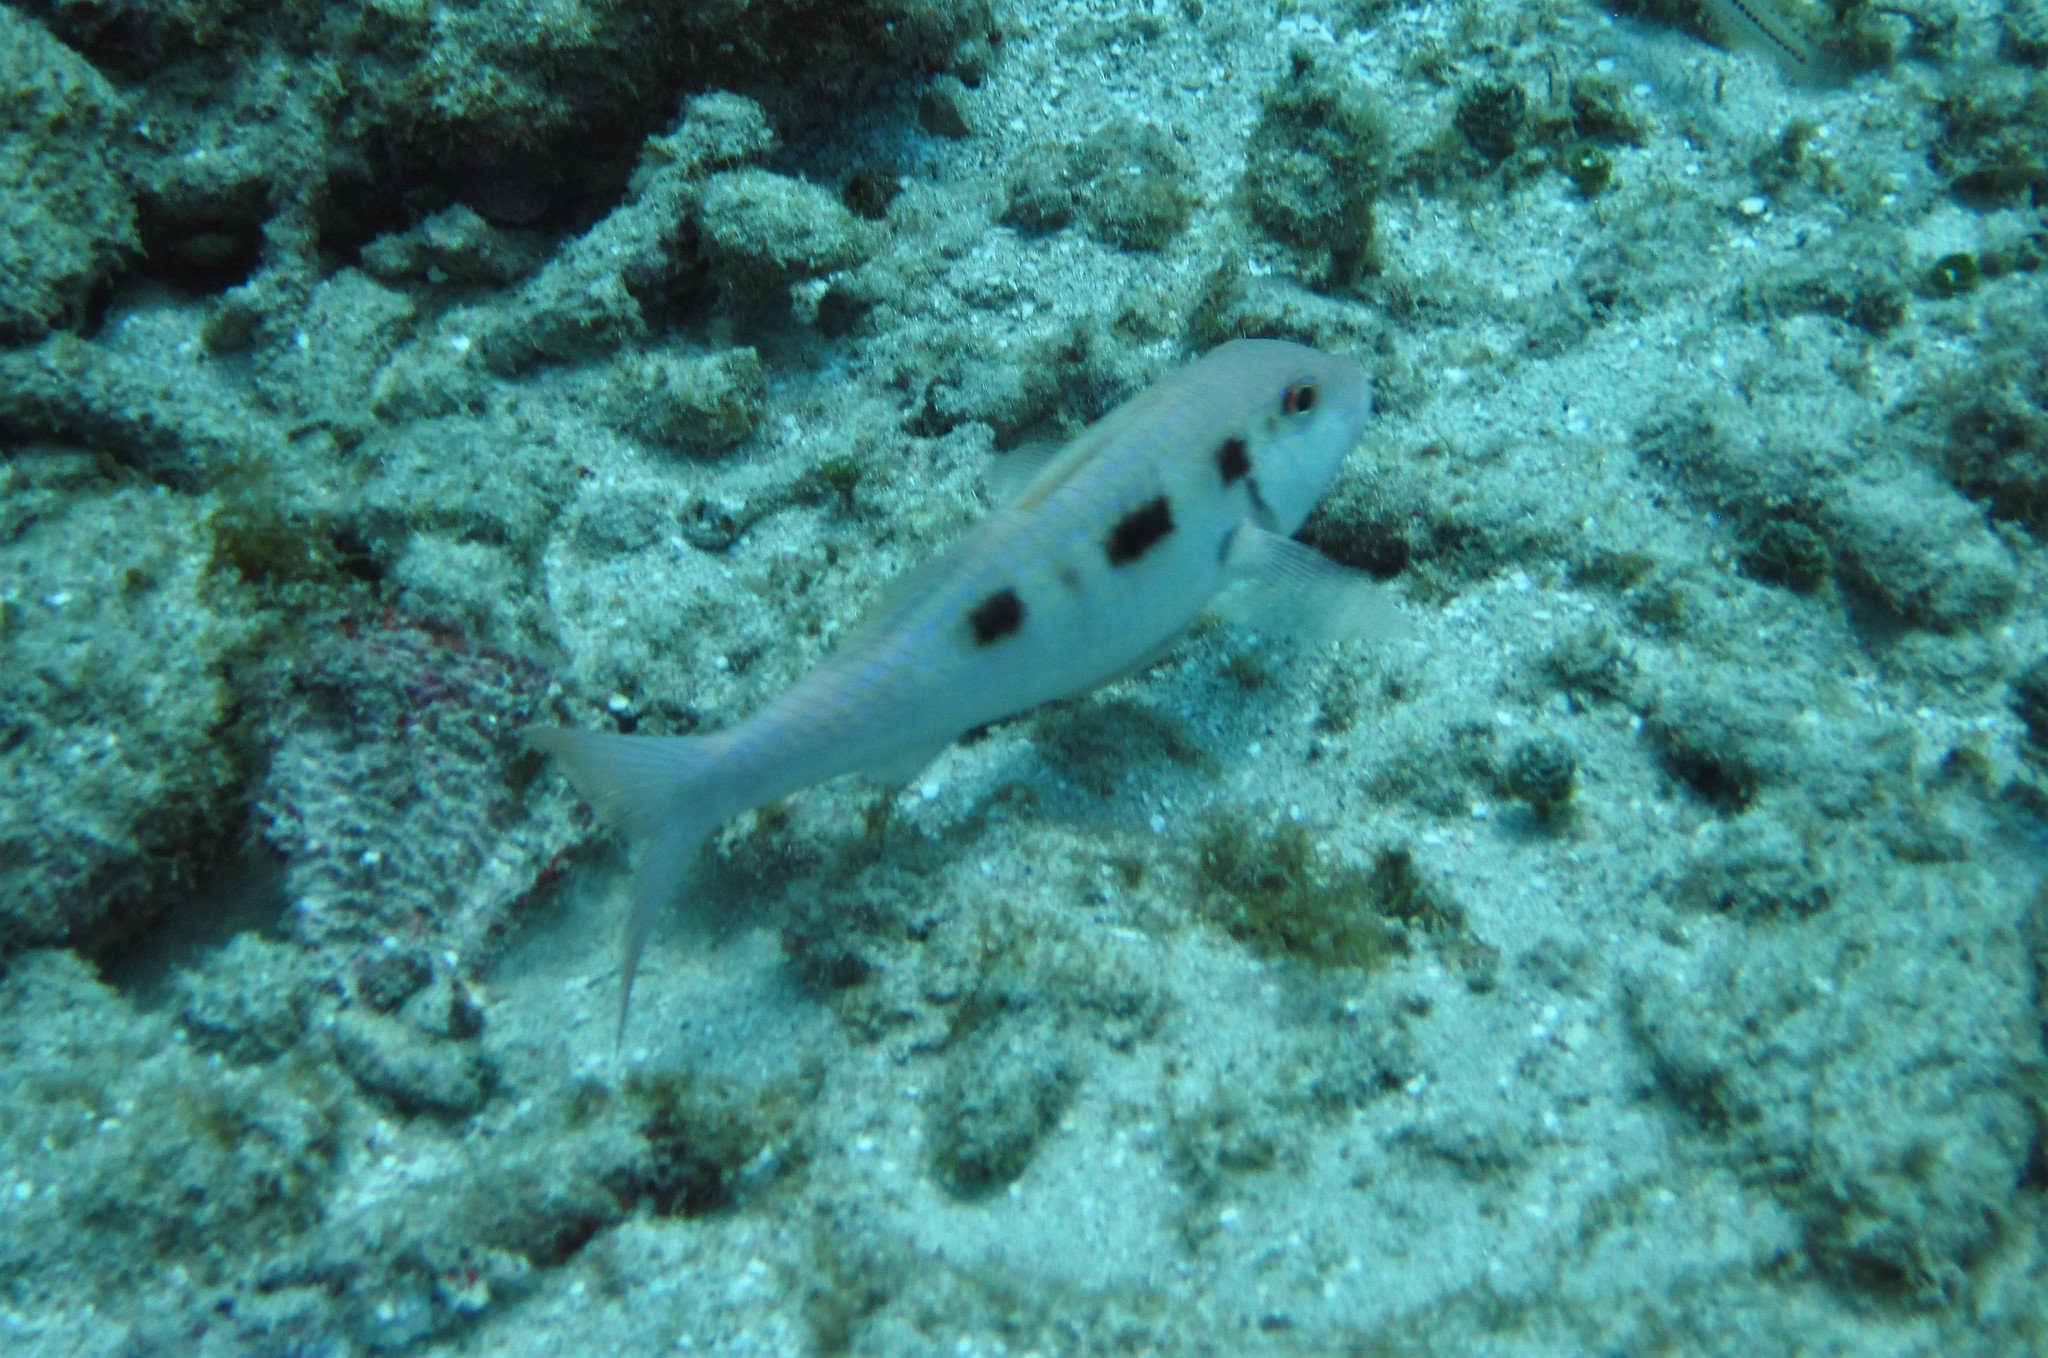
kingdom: Animalia
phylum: Chordata
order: Perciformes
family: Mullidae
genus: Pseudupeneus
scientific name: Pseudupeneus maculatus
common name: Spotted goatfish
